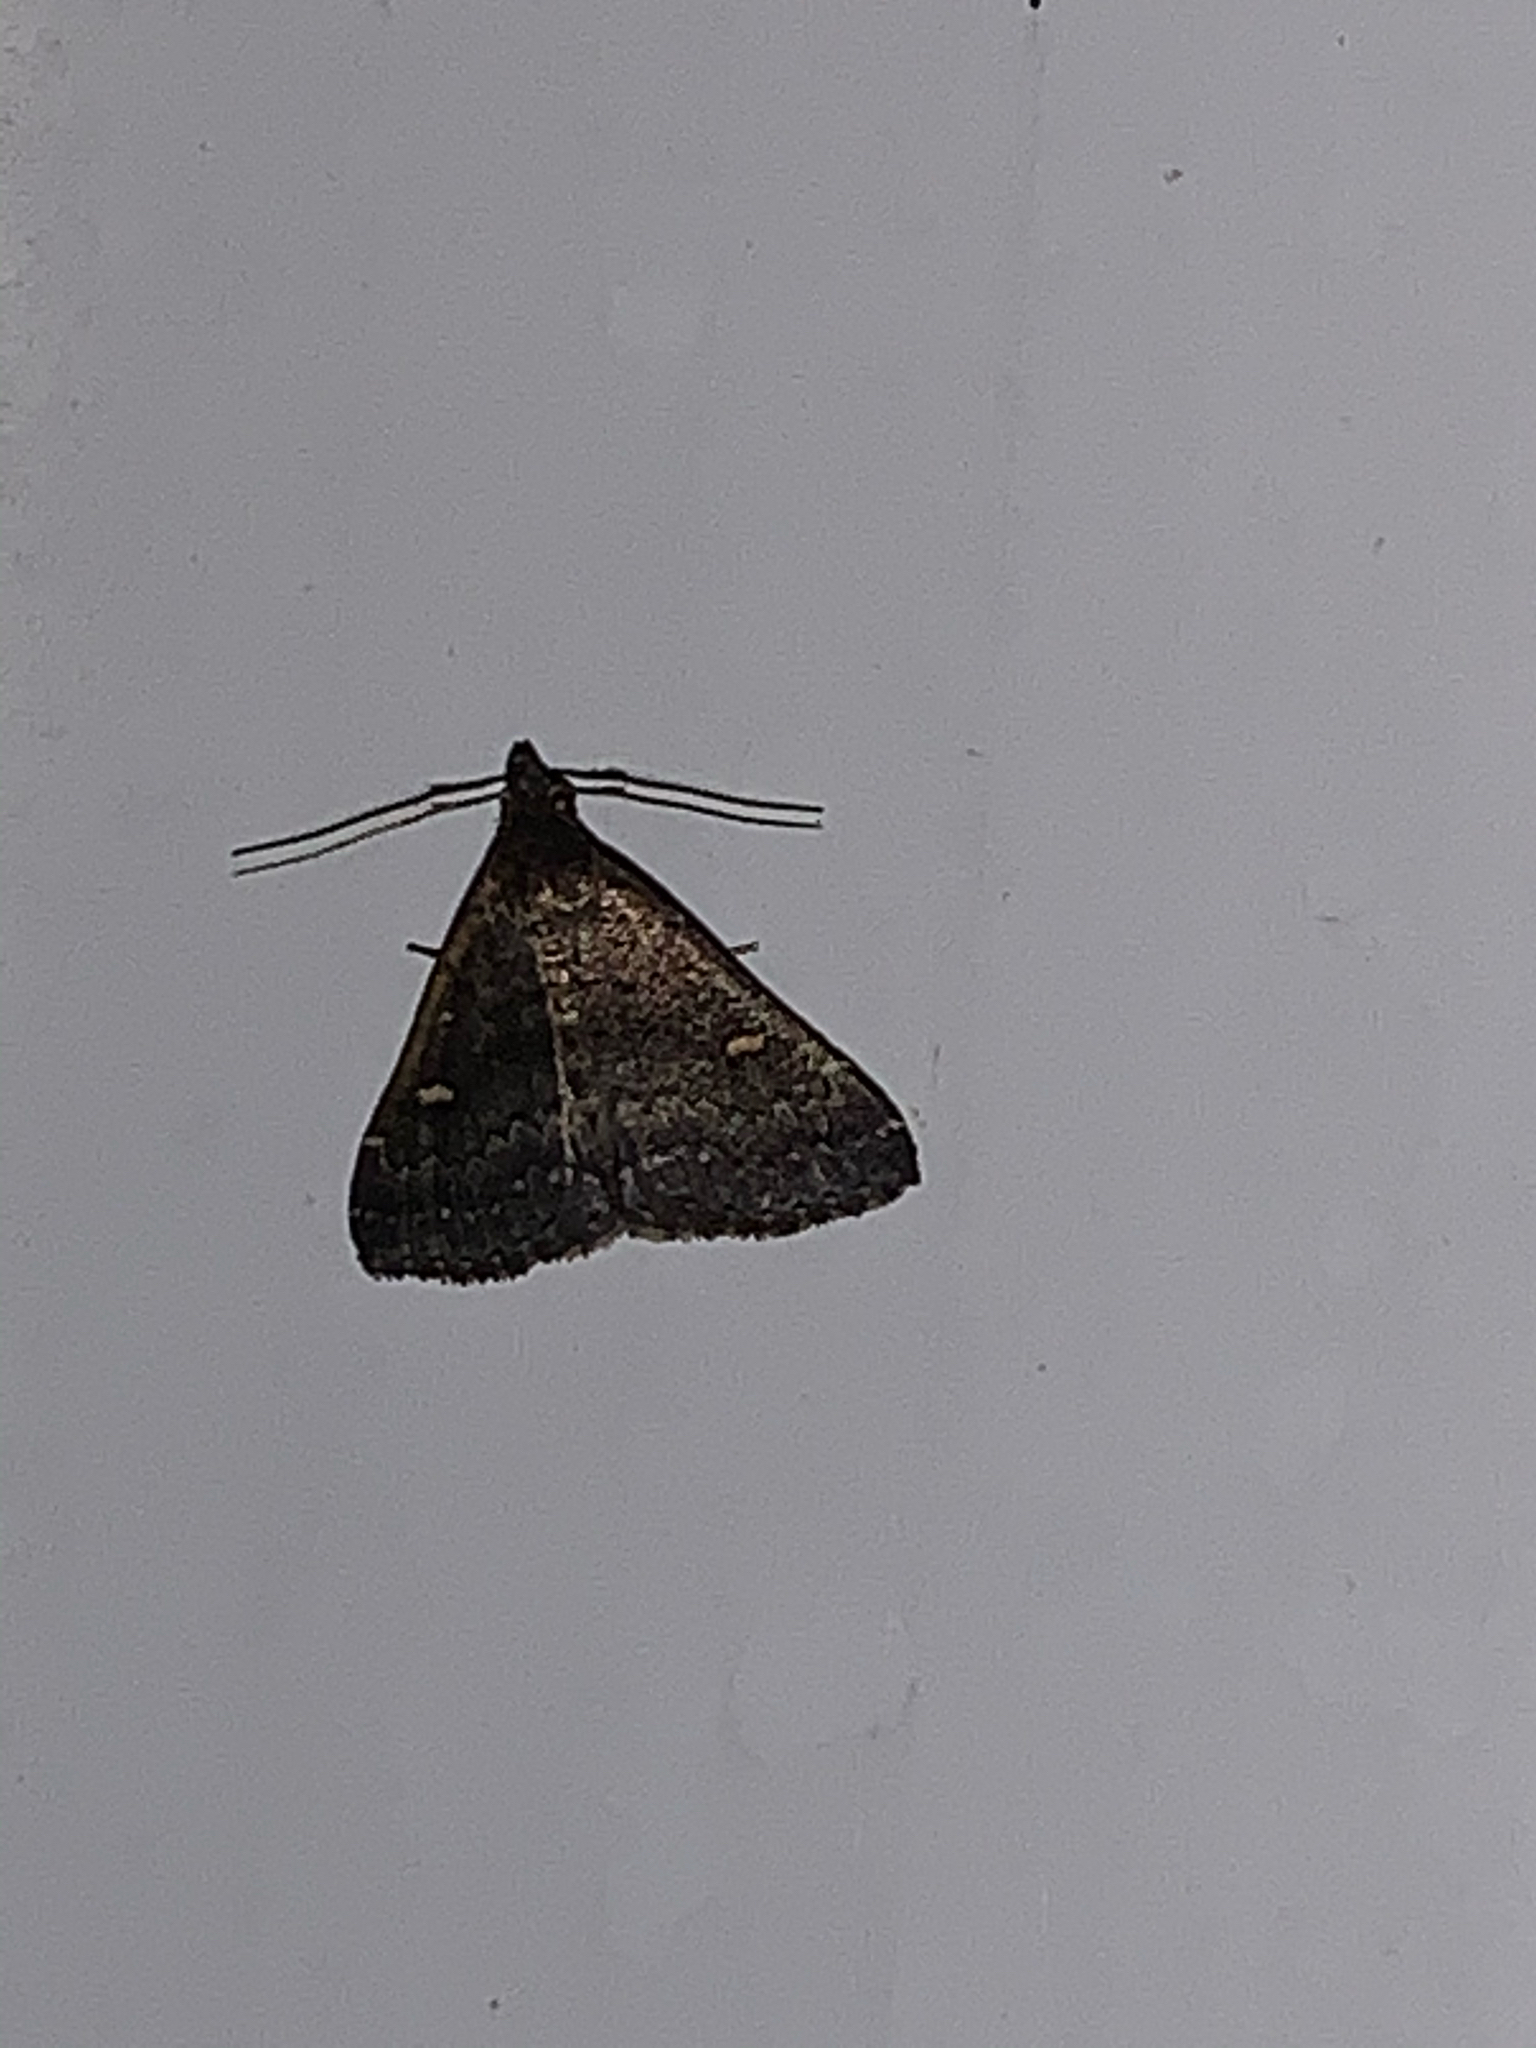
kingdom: Animalia
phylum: Arthropoda
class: Insecta
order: Lepidoptera
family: Erebidae
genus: Tetanolita
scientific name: Tetanolita mynesalis
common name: Smoky tetanolita moth
